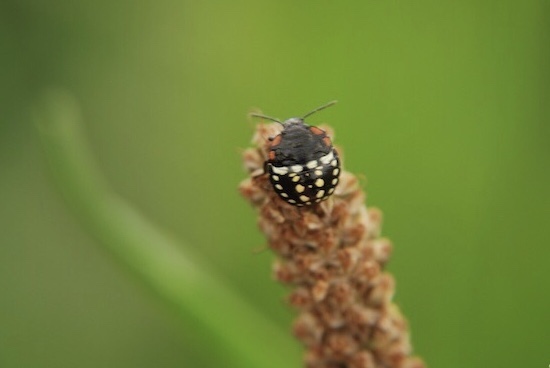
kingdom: Animalia
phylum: Arthropoda
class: Insecta
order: Hemiptera
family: Pentatomidae
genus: Nezara
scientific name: Nezara viridula
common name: Southern green stink bug
